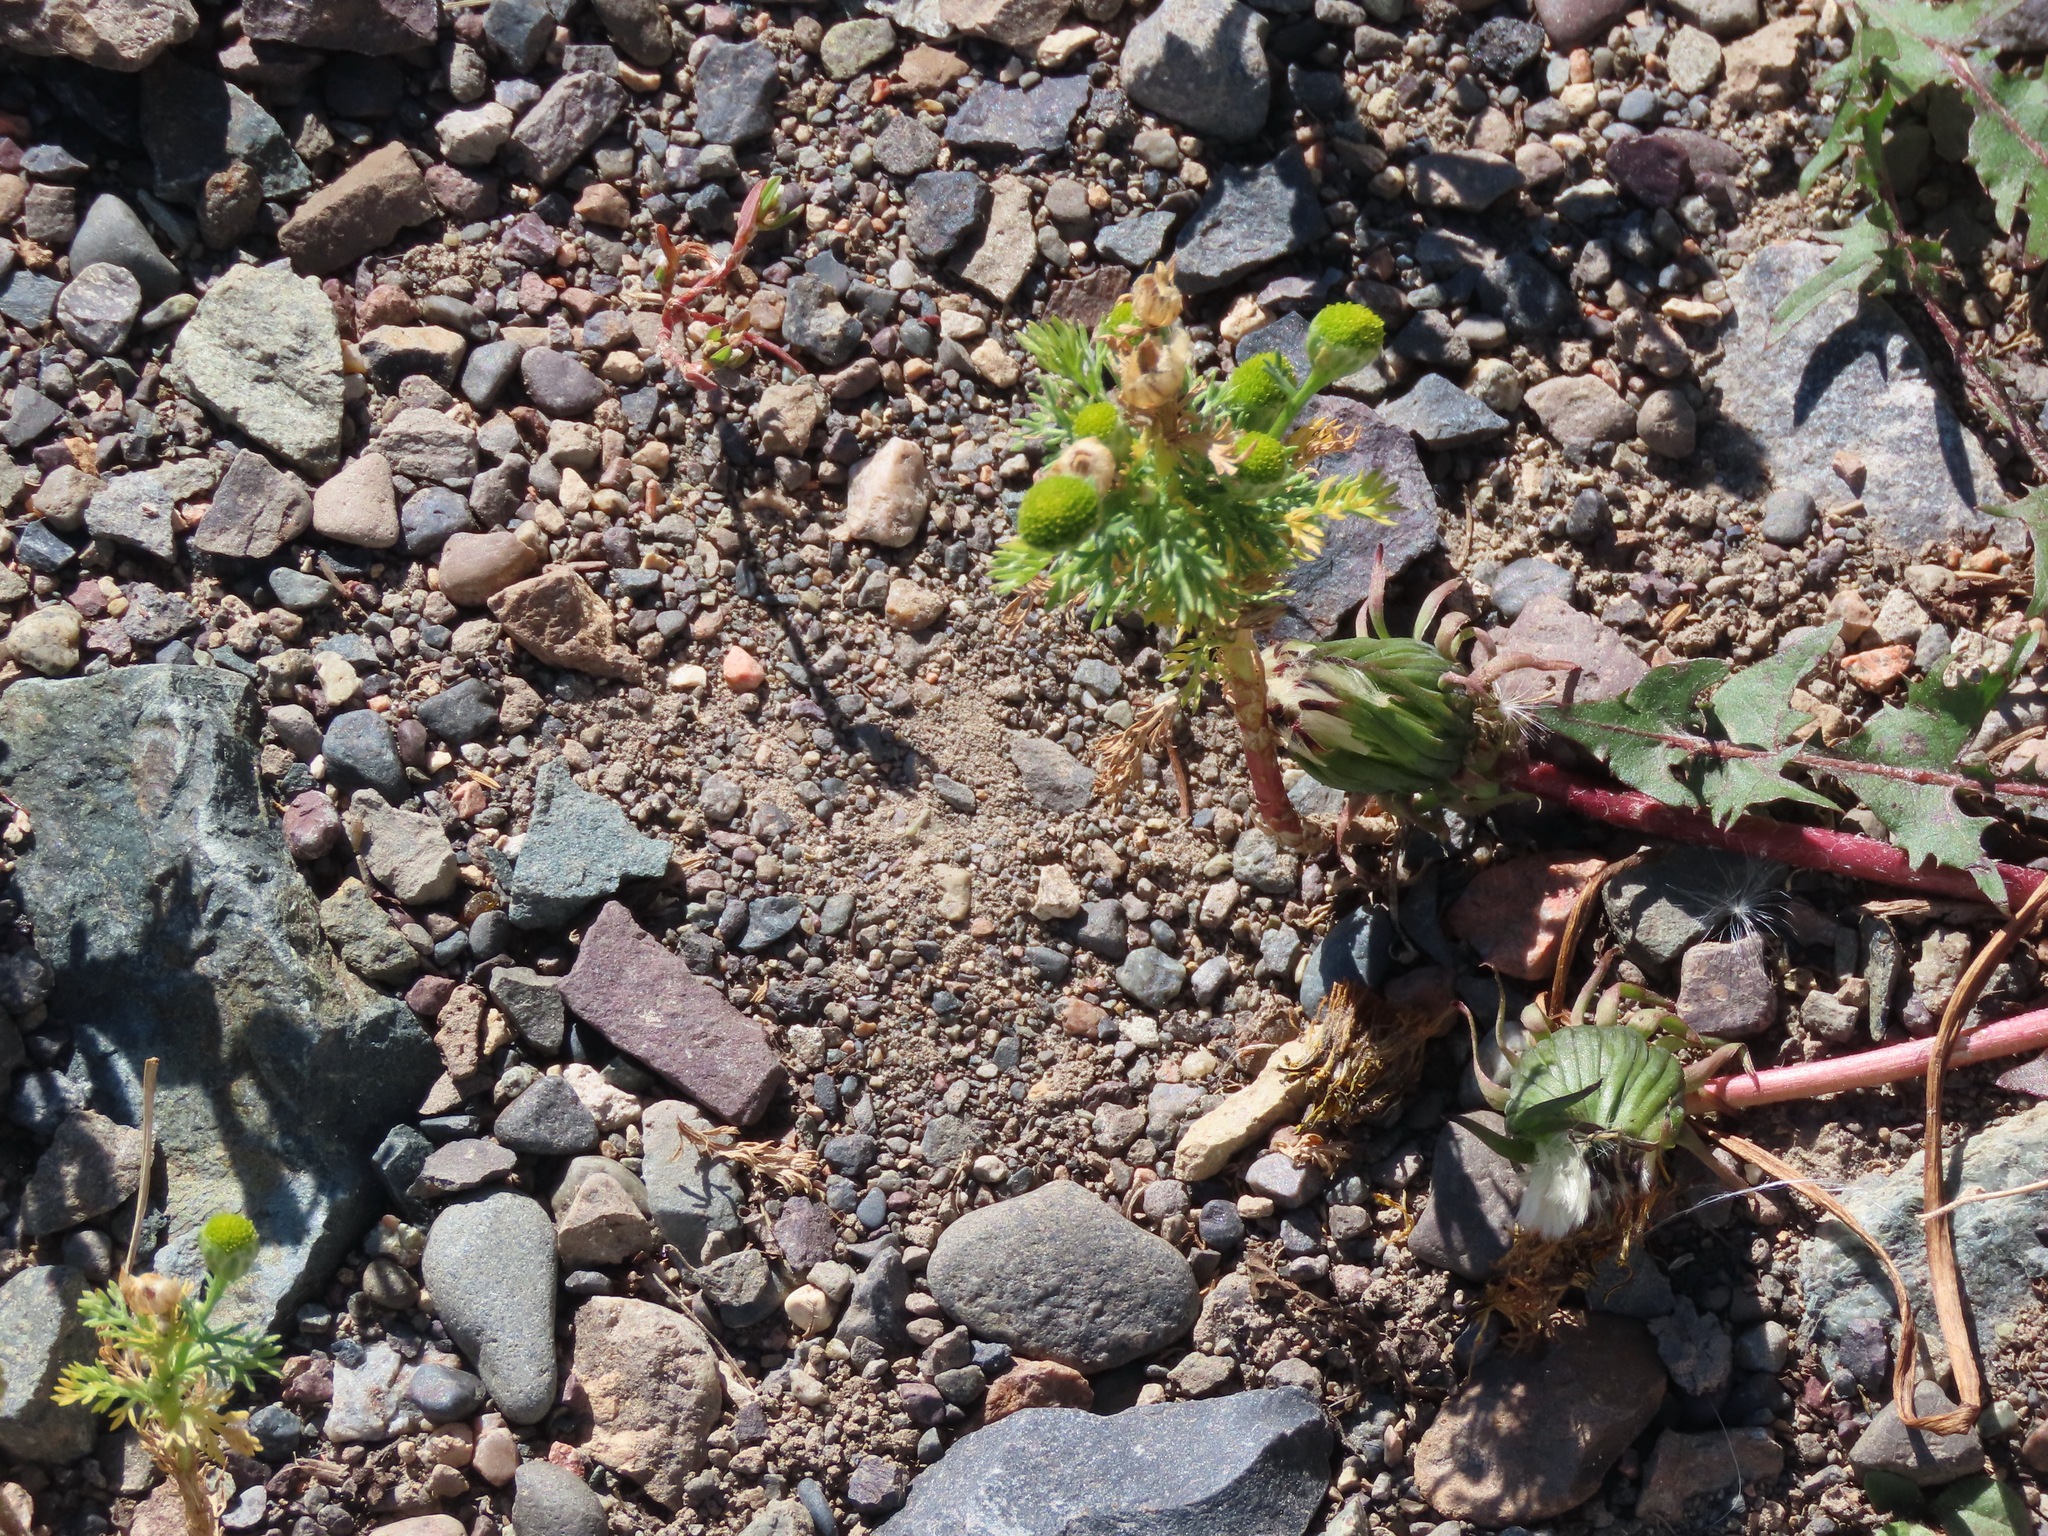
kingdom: Plantae
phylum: Tracheophyta
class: Magnoliopsida
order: Asterales
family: Asteraceae
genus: Matricaria
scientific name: Matricaria discoidea
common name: Disc mayweed
